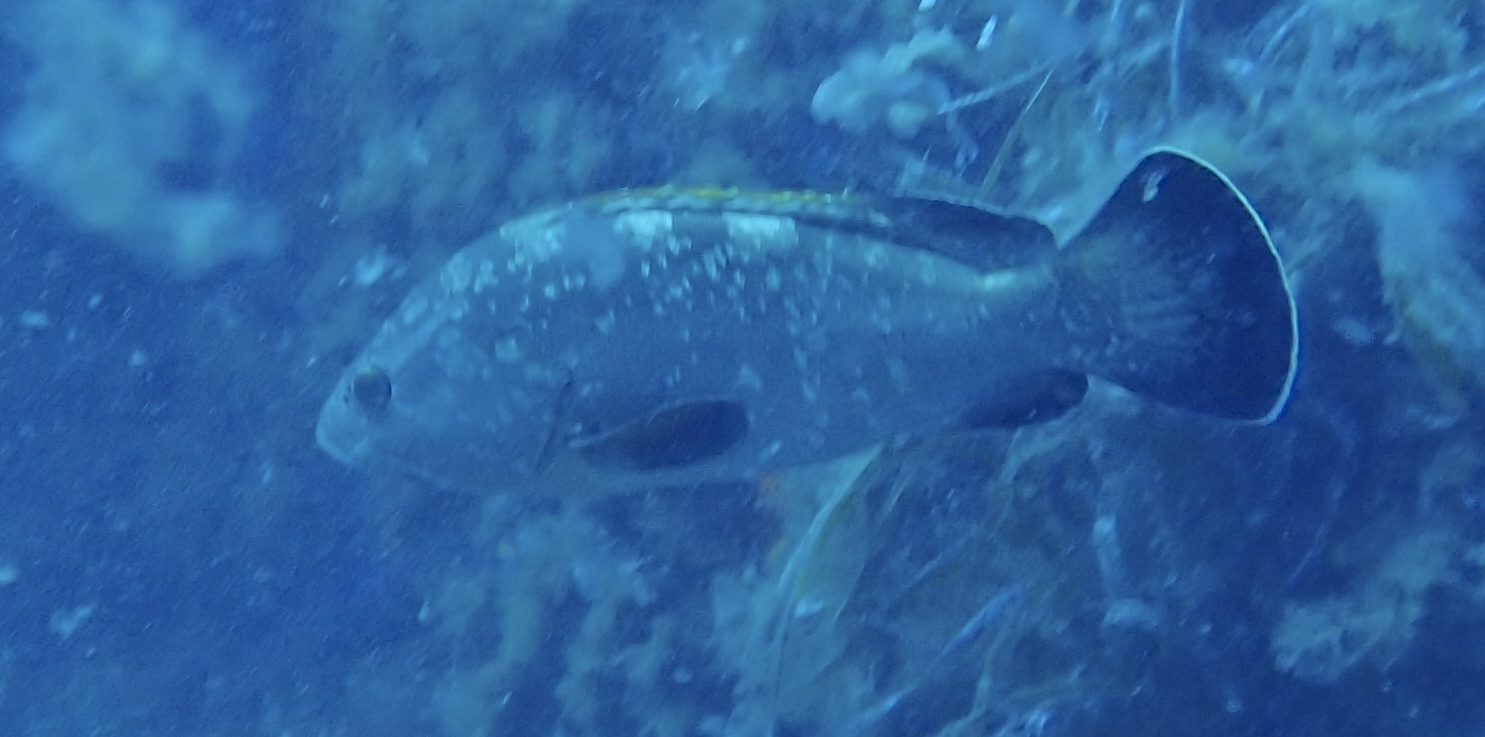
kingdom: Animalia
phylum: Chordata
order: Perciformes
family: Serranidae
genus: Epinephelus
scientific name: Epinephelus marginatus
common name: Dusky grouper
